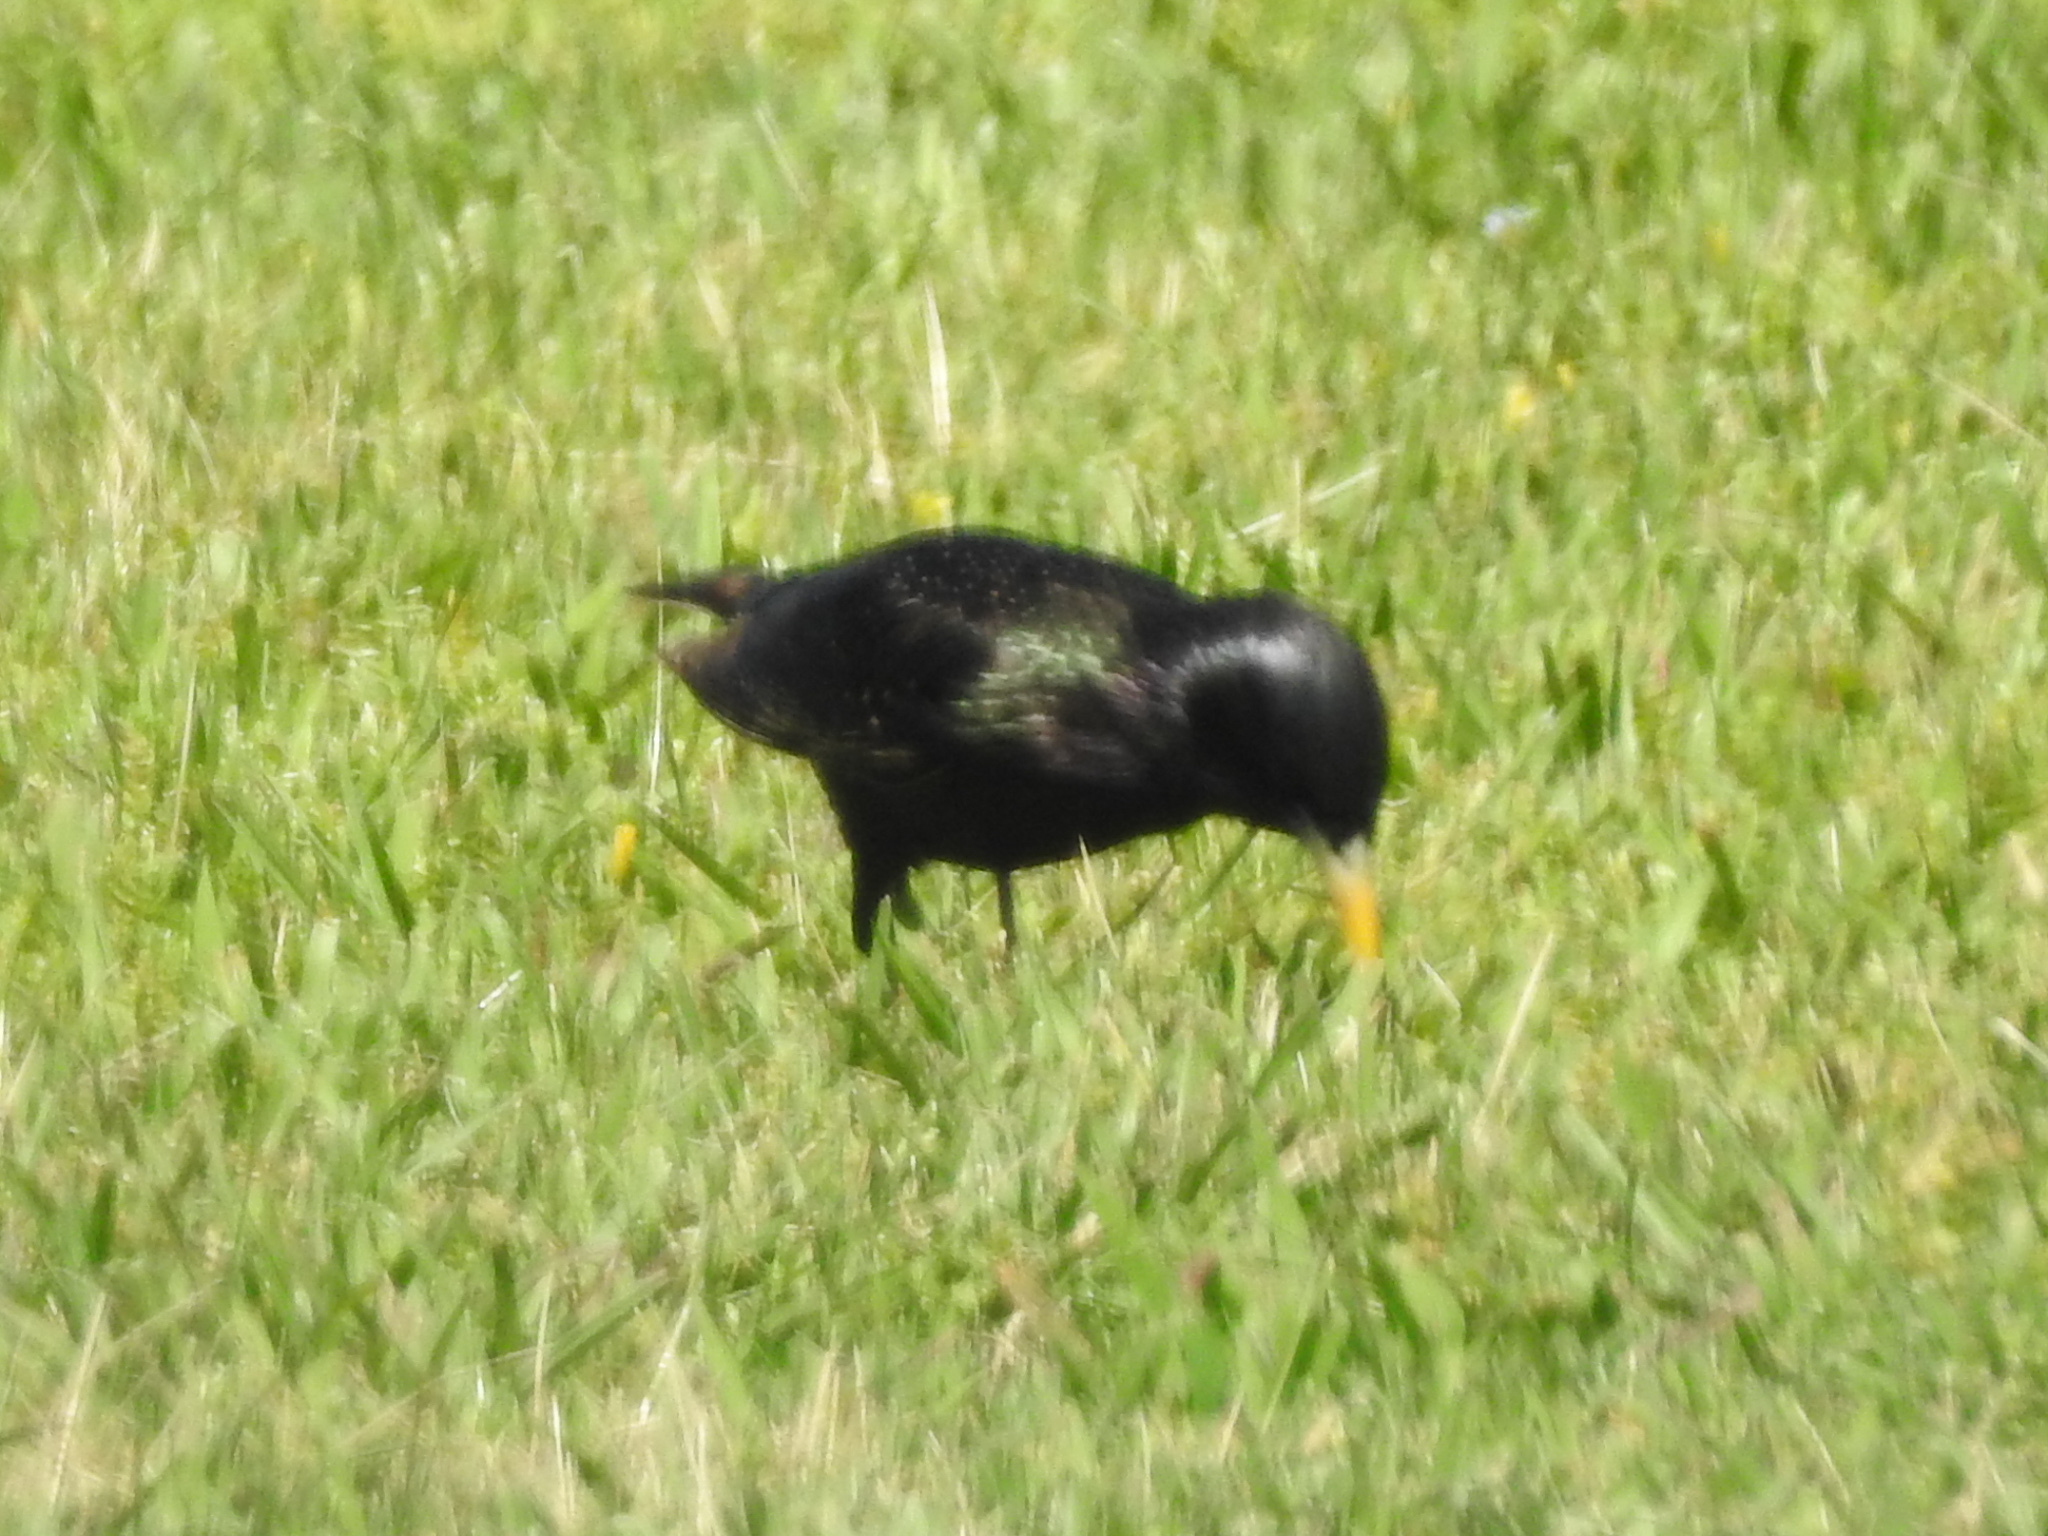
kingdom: Animalia
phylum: Chordata
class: Aves
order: Passeriformes
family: Sturnidae
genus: Sturnus
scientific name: Sturnus vulgaris
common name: Common starling
